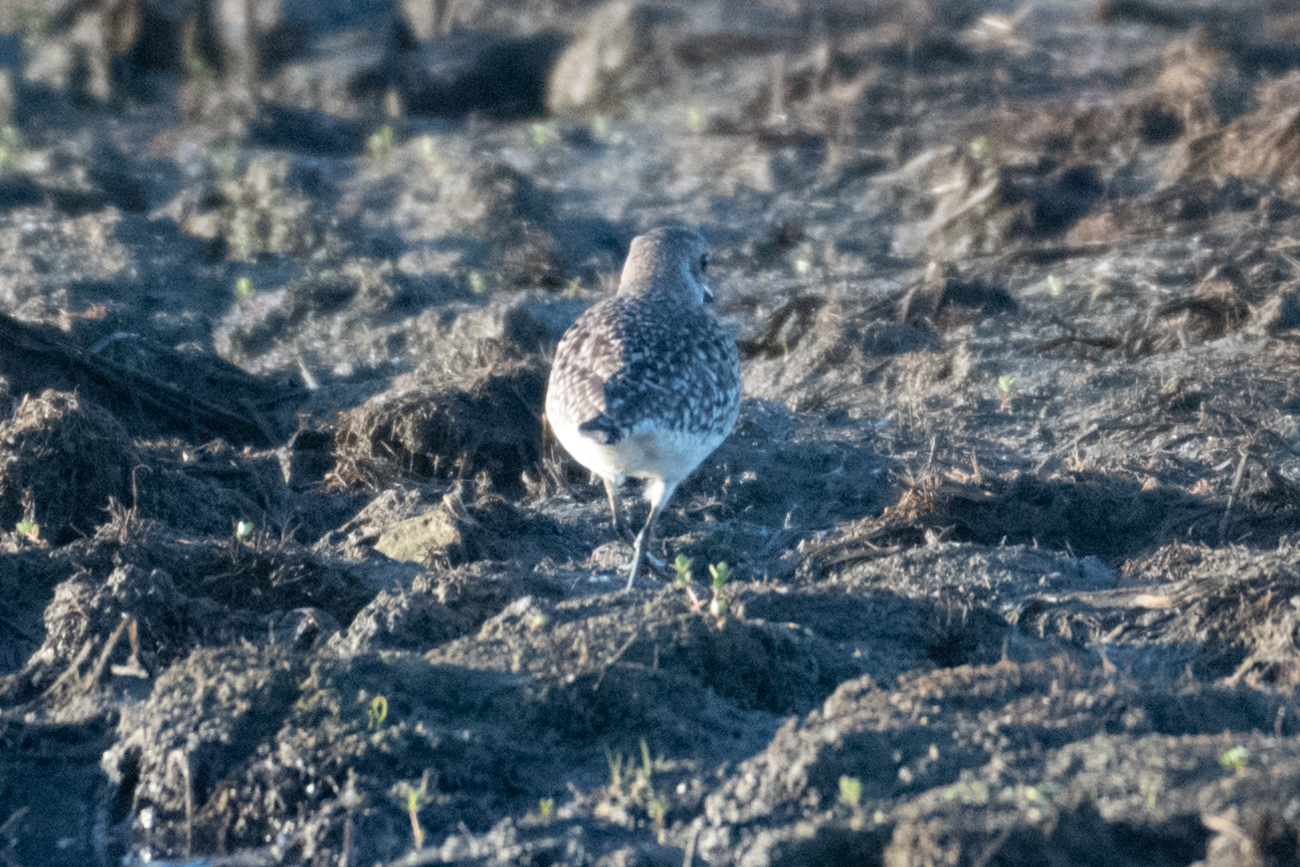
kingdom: Animalia
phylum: Chordata
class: Aves
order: Charadriiformes
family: Charadriidae
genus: Pluvialis
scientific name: Pluvialis squatarola
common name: Grey plover
